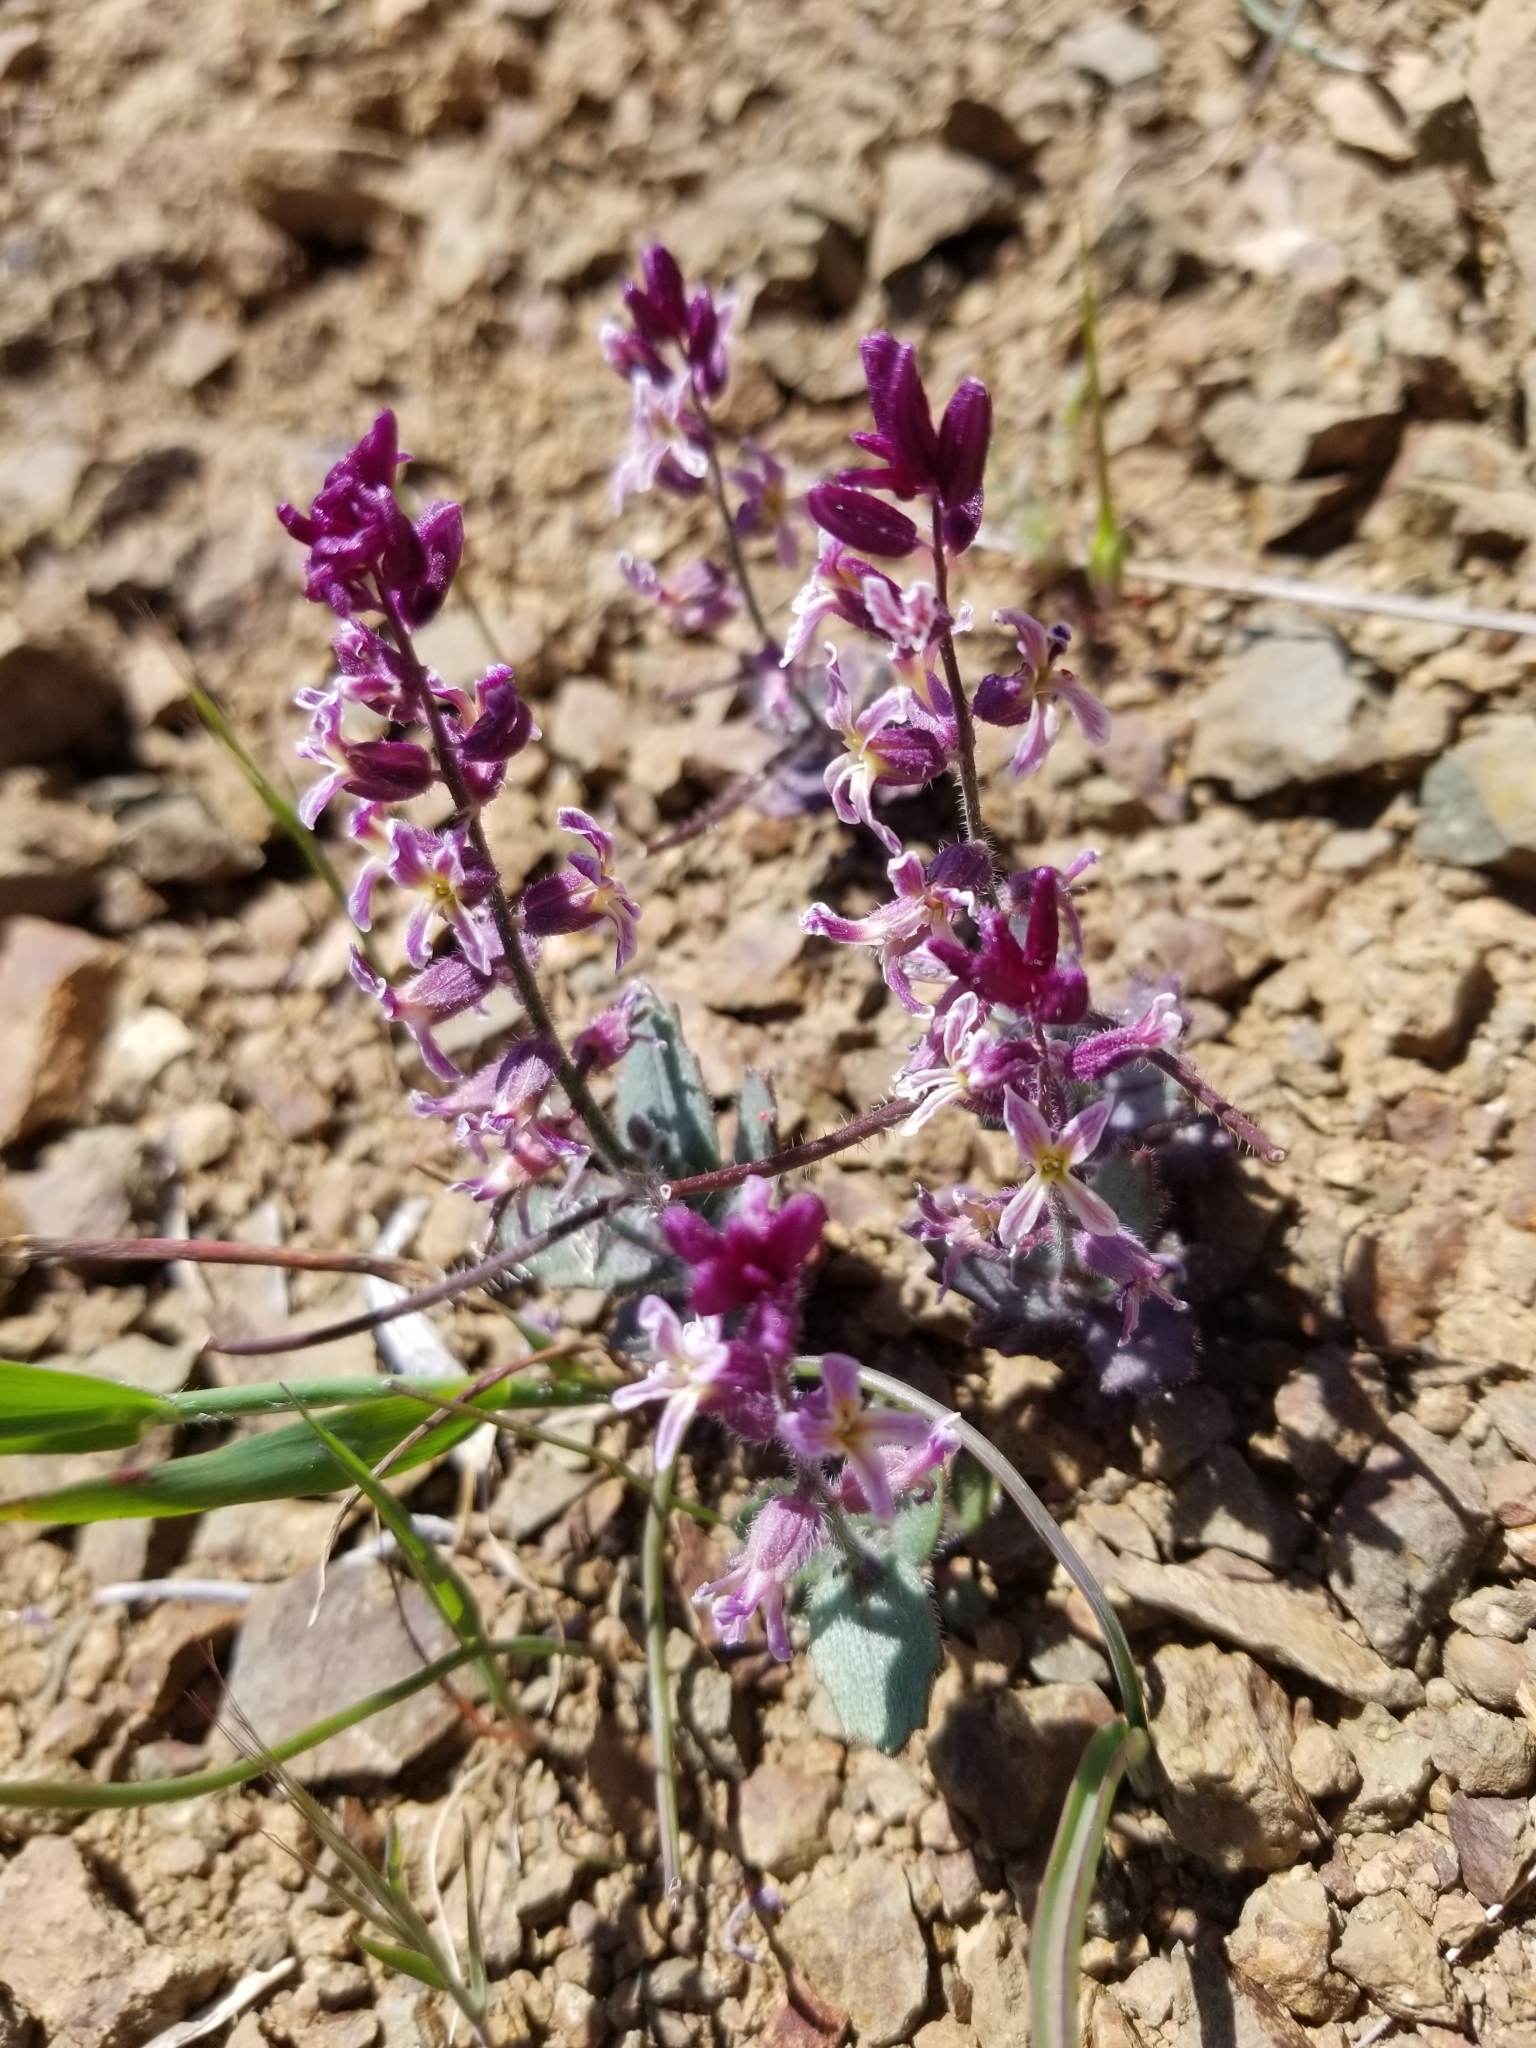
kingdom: Plantae
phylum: Tracheophyta
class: Magnoliopsida
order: Brassicales
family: Brassicaceae
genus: Streptanthus
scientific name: Streptanthus hispidus
